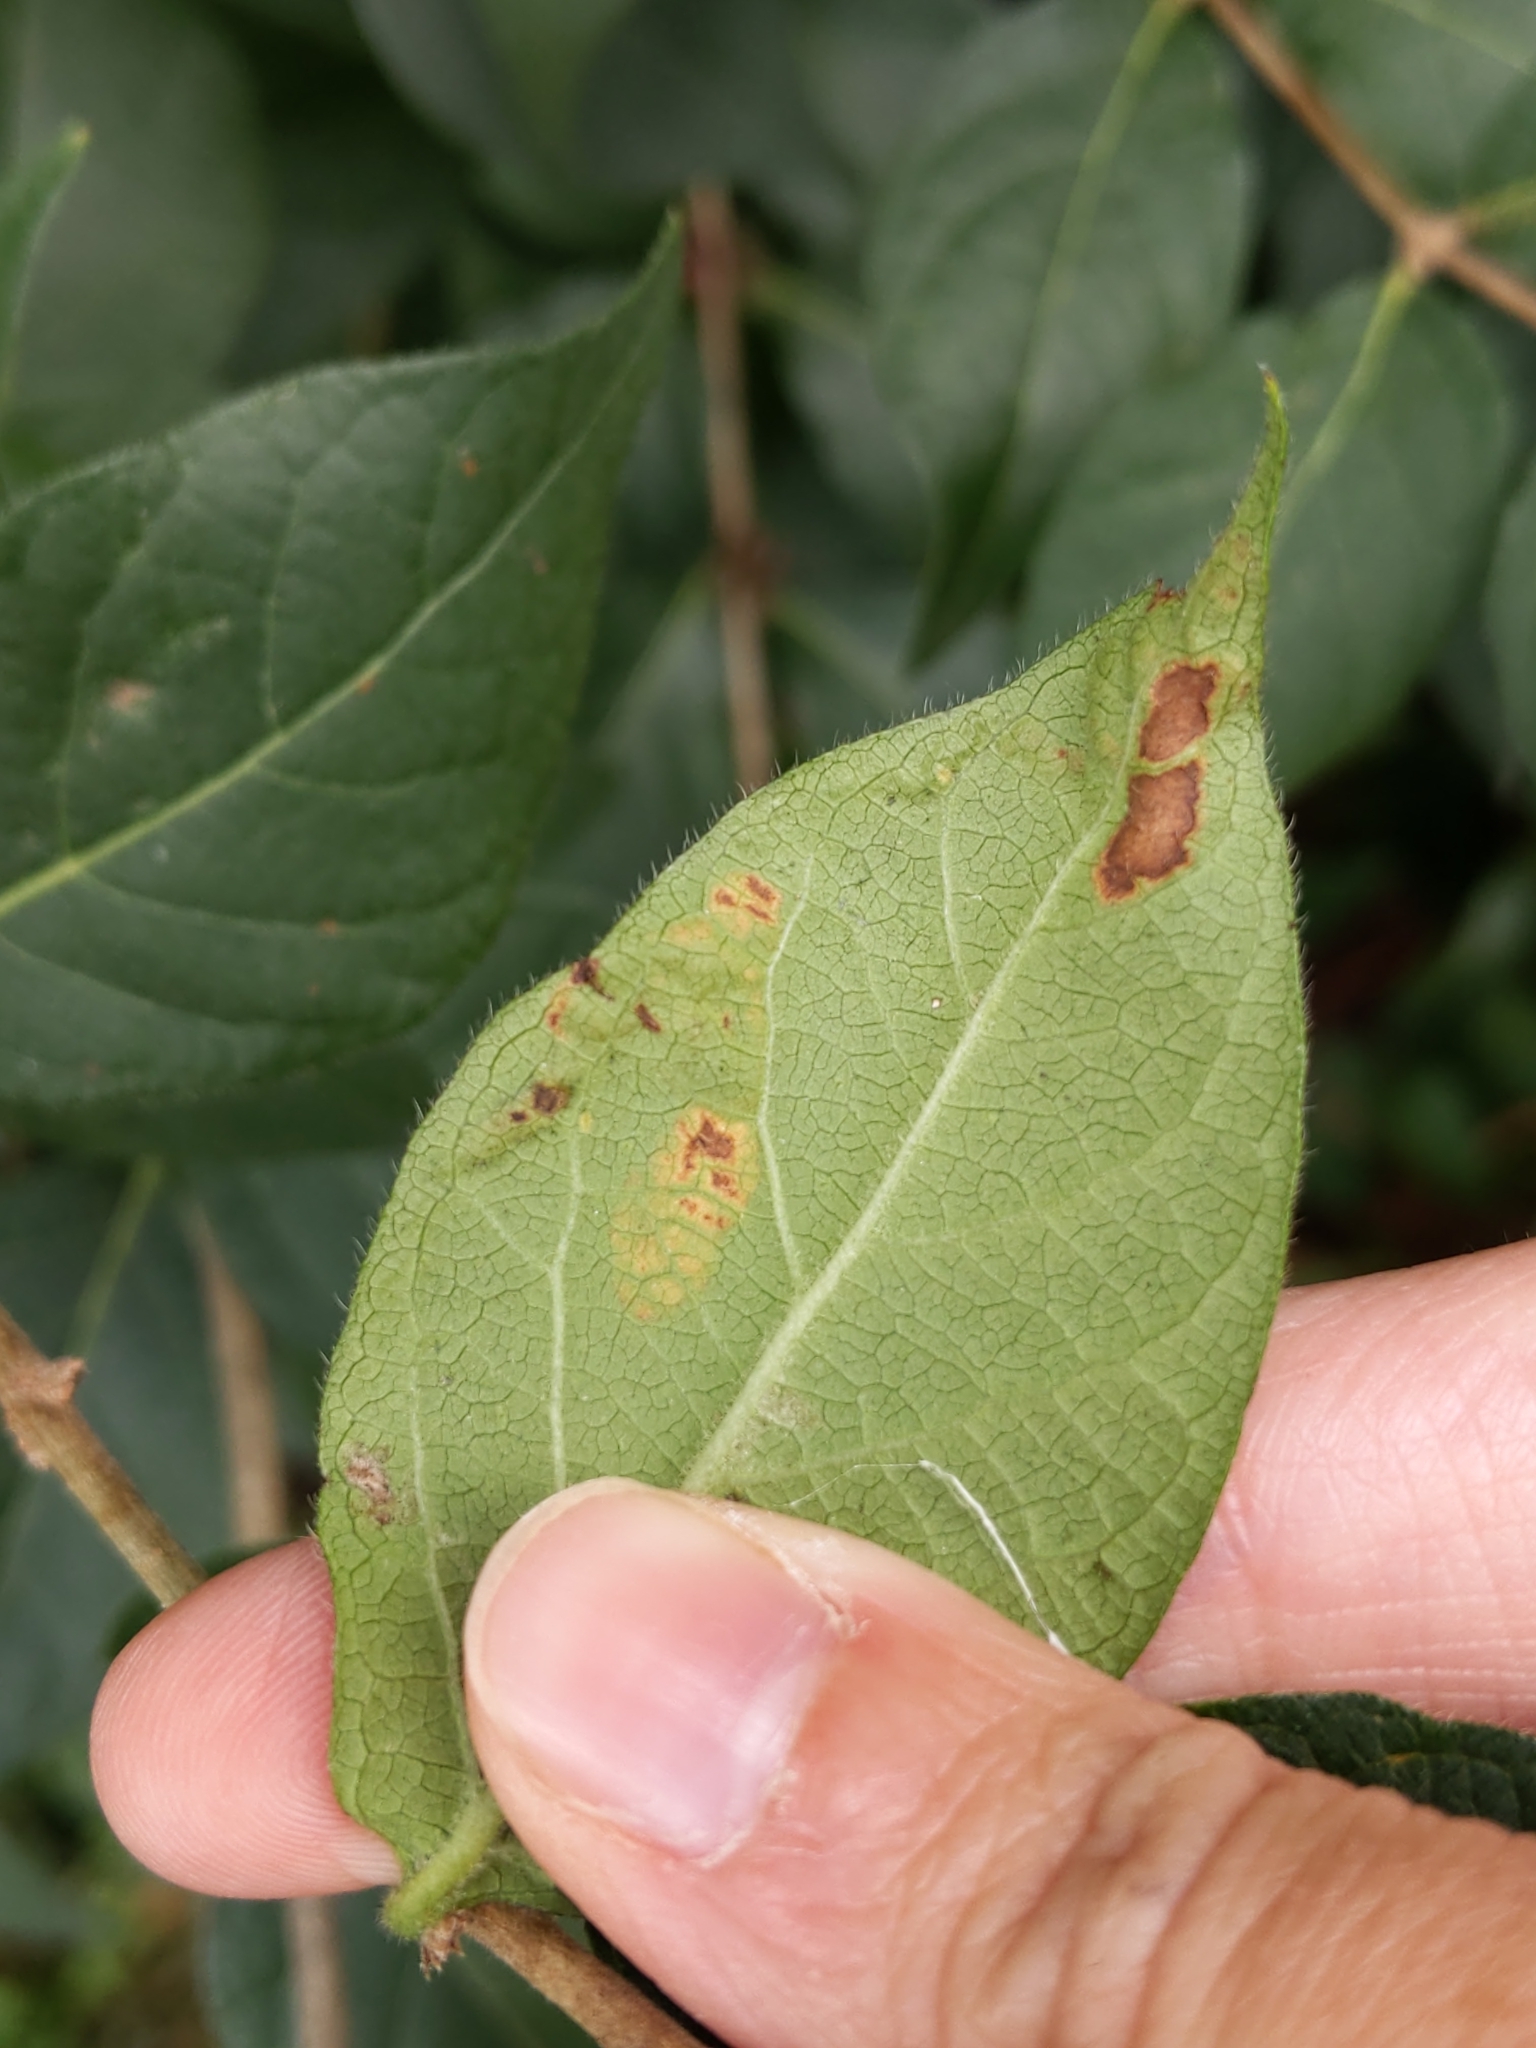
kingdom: Animalia
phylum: Arthropoda
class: Insecta
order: Diptera
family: Agromyzidae
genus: Aulagromyza
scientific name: Aulagromyza
